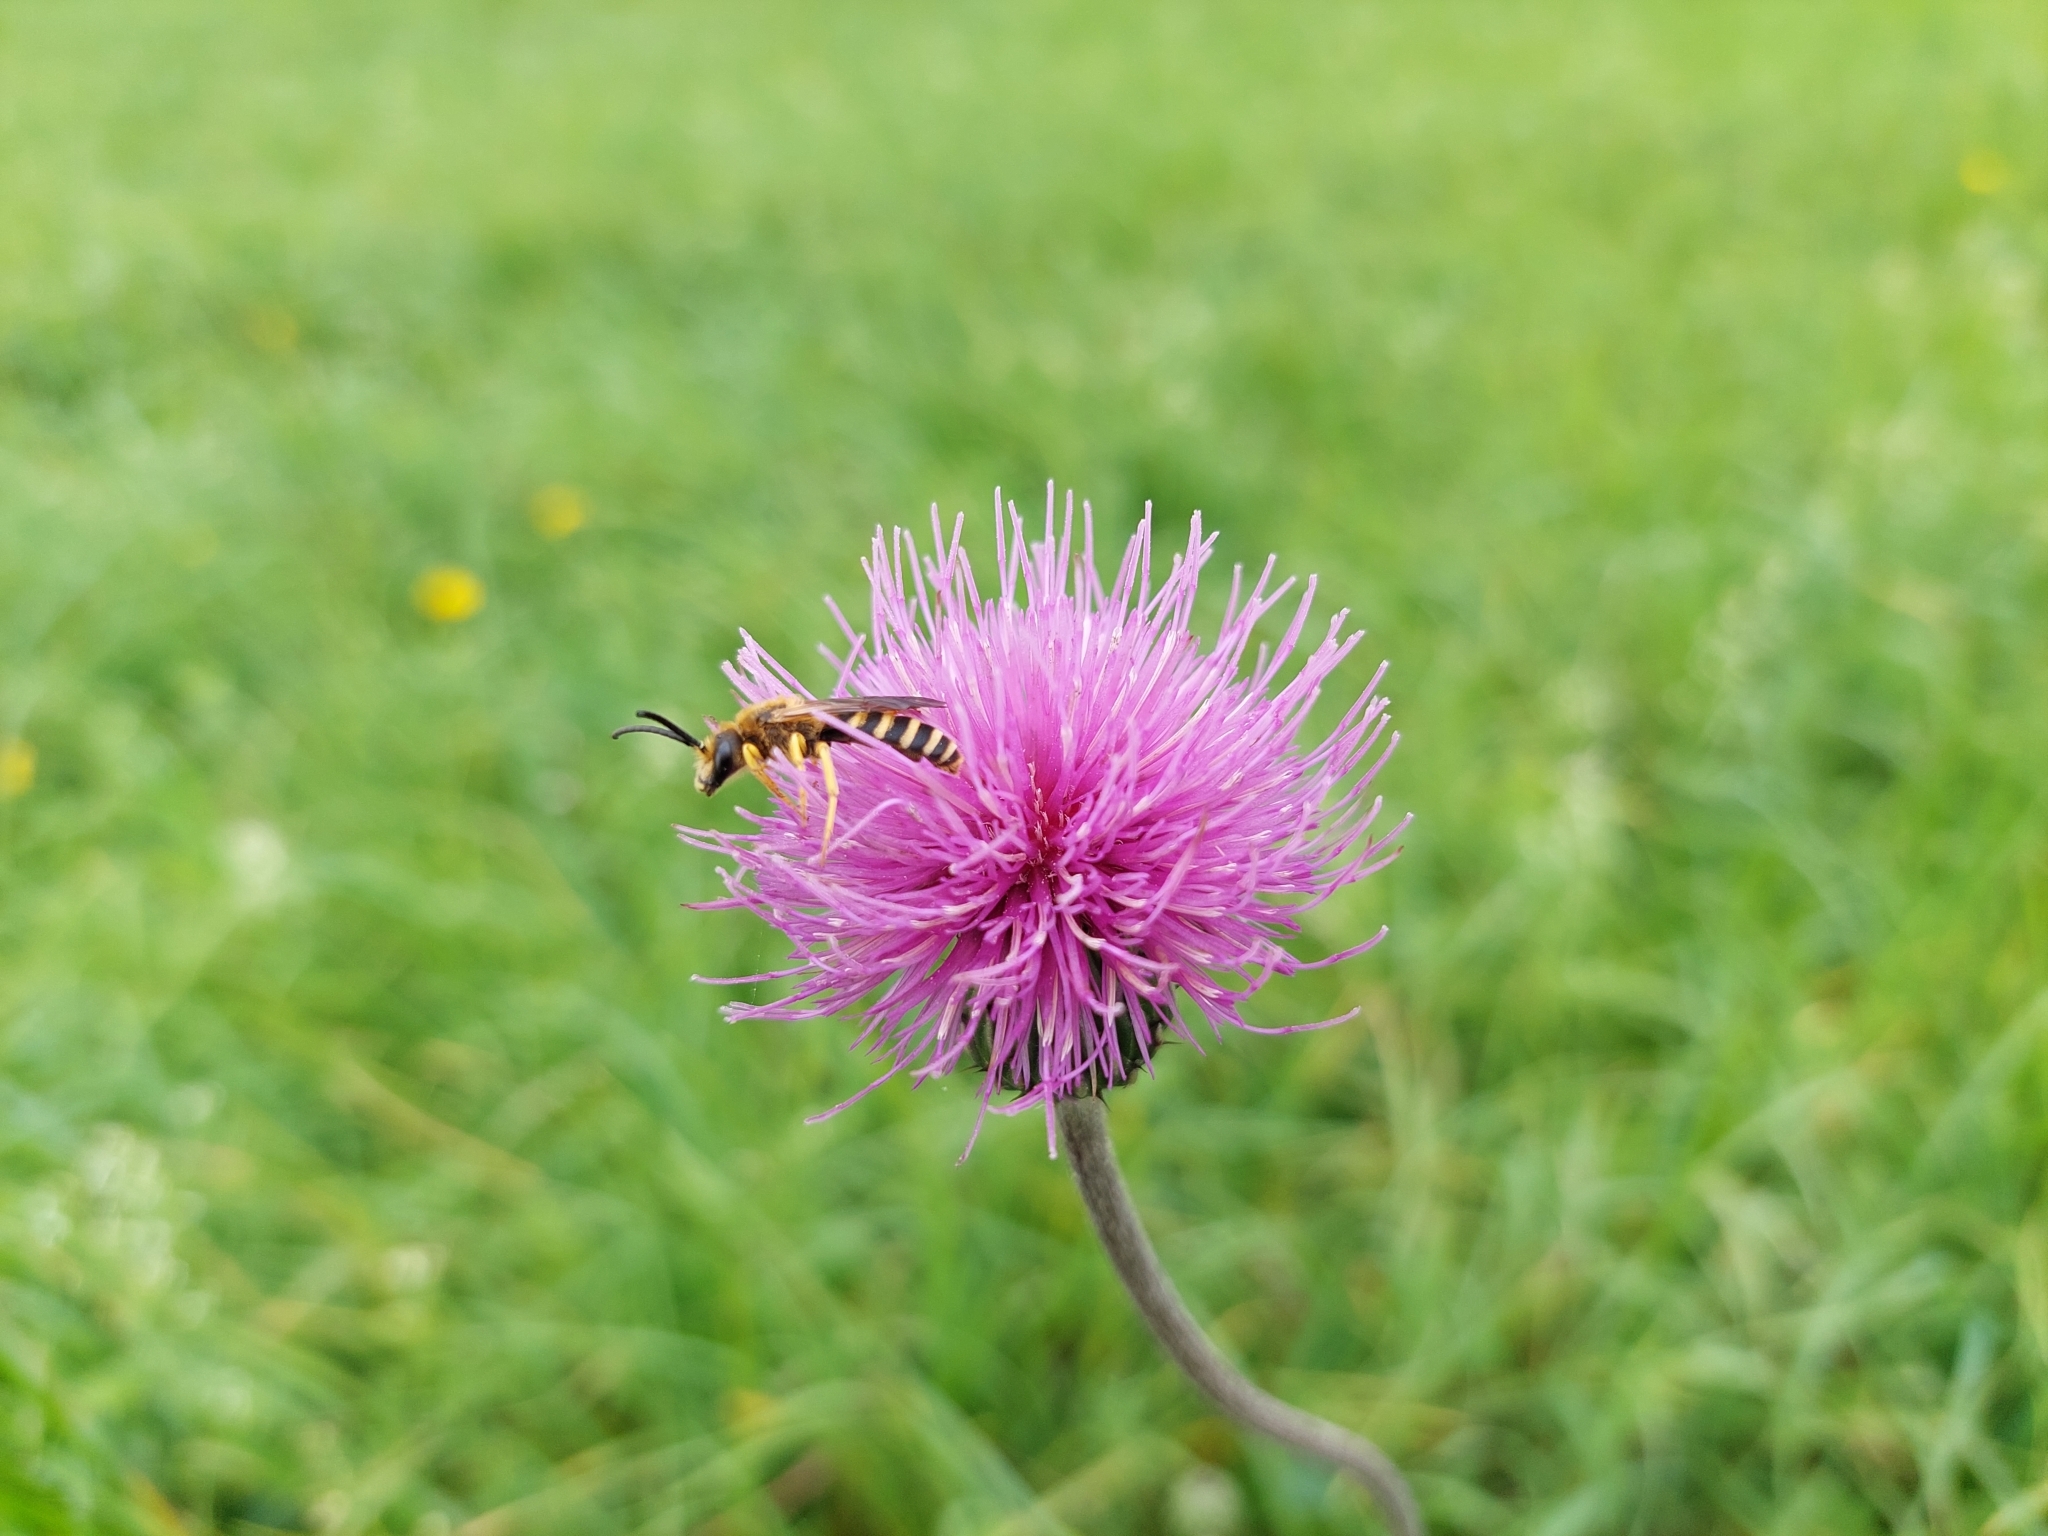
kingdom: Animalia
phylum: Arthropoda
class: Insecta
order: Hymenoptera
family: Halictidae
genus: Halictus
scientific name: Halictus scabiosae
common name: Great banded furrow bee
